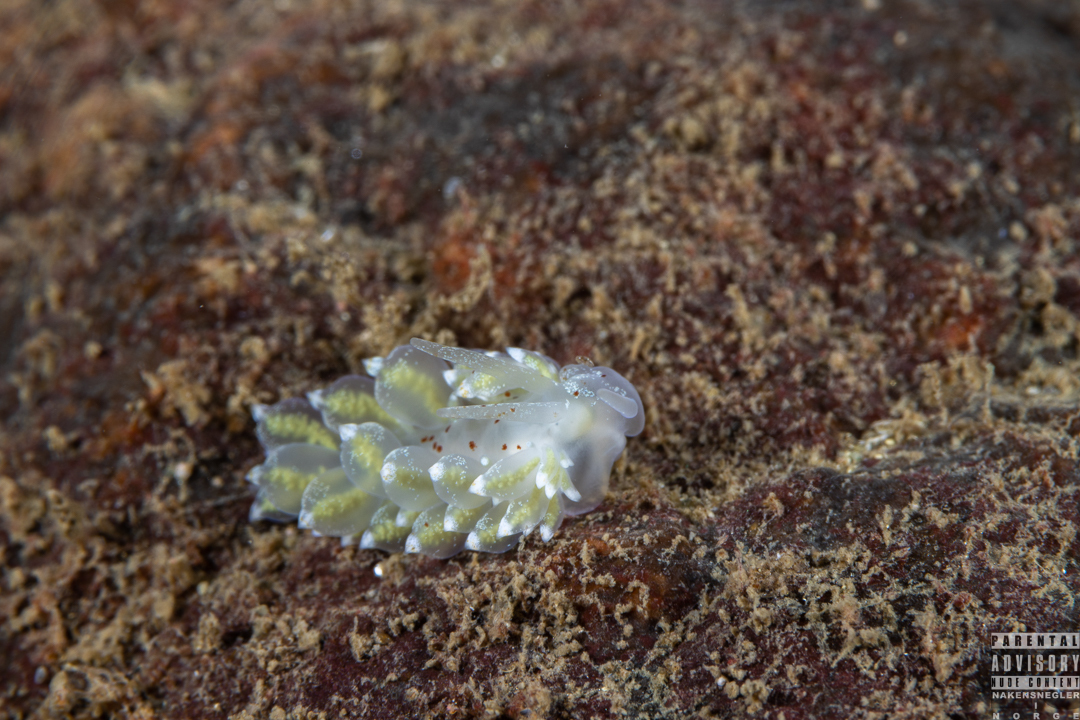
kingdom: Animalia
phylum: Mollusca
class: Gastropoda
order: Nudibranchia
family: Eubranchidae
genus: Amphorina
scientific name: Amphorina pallida
